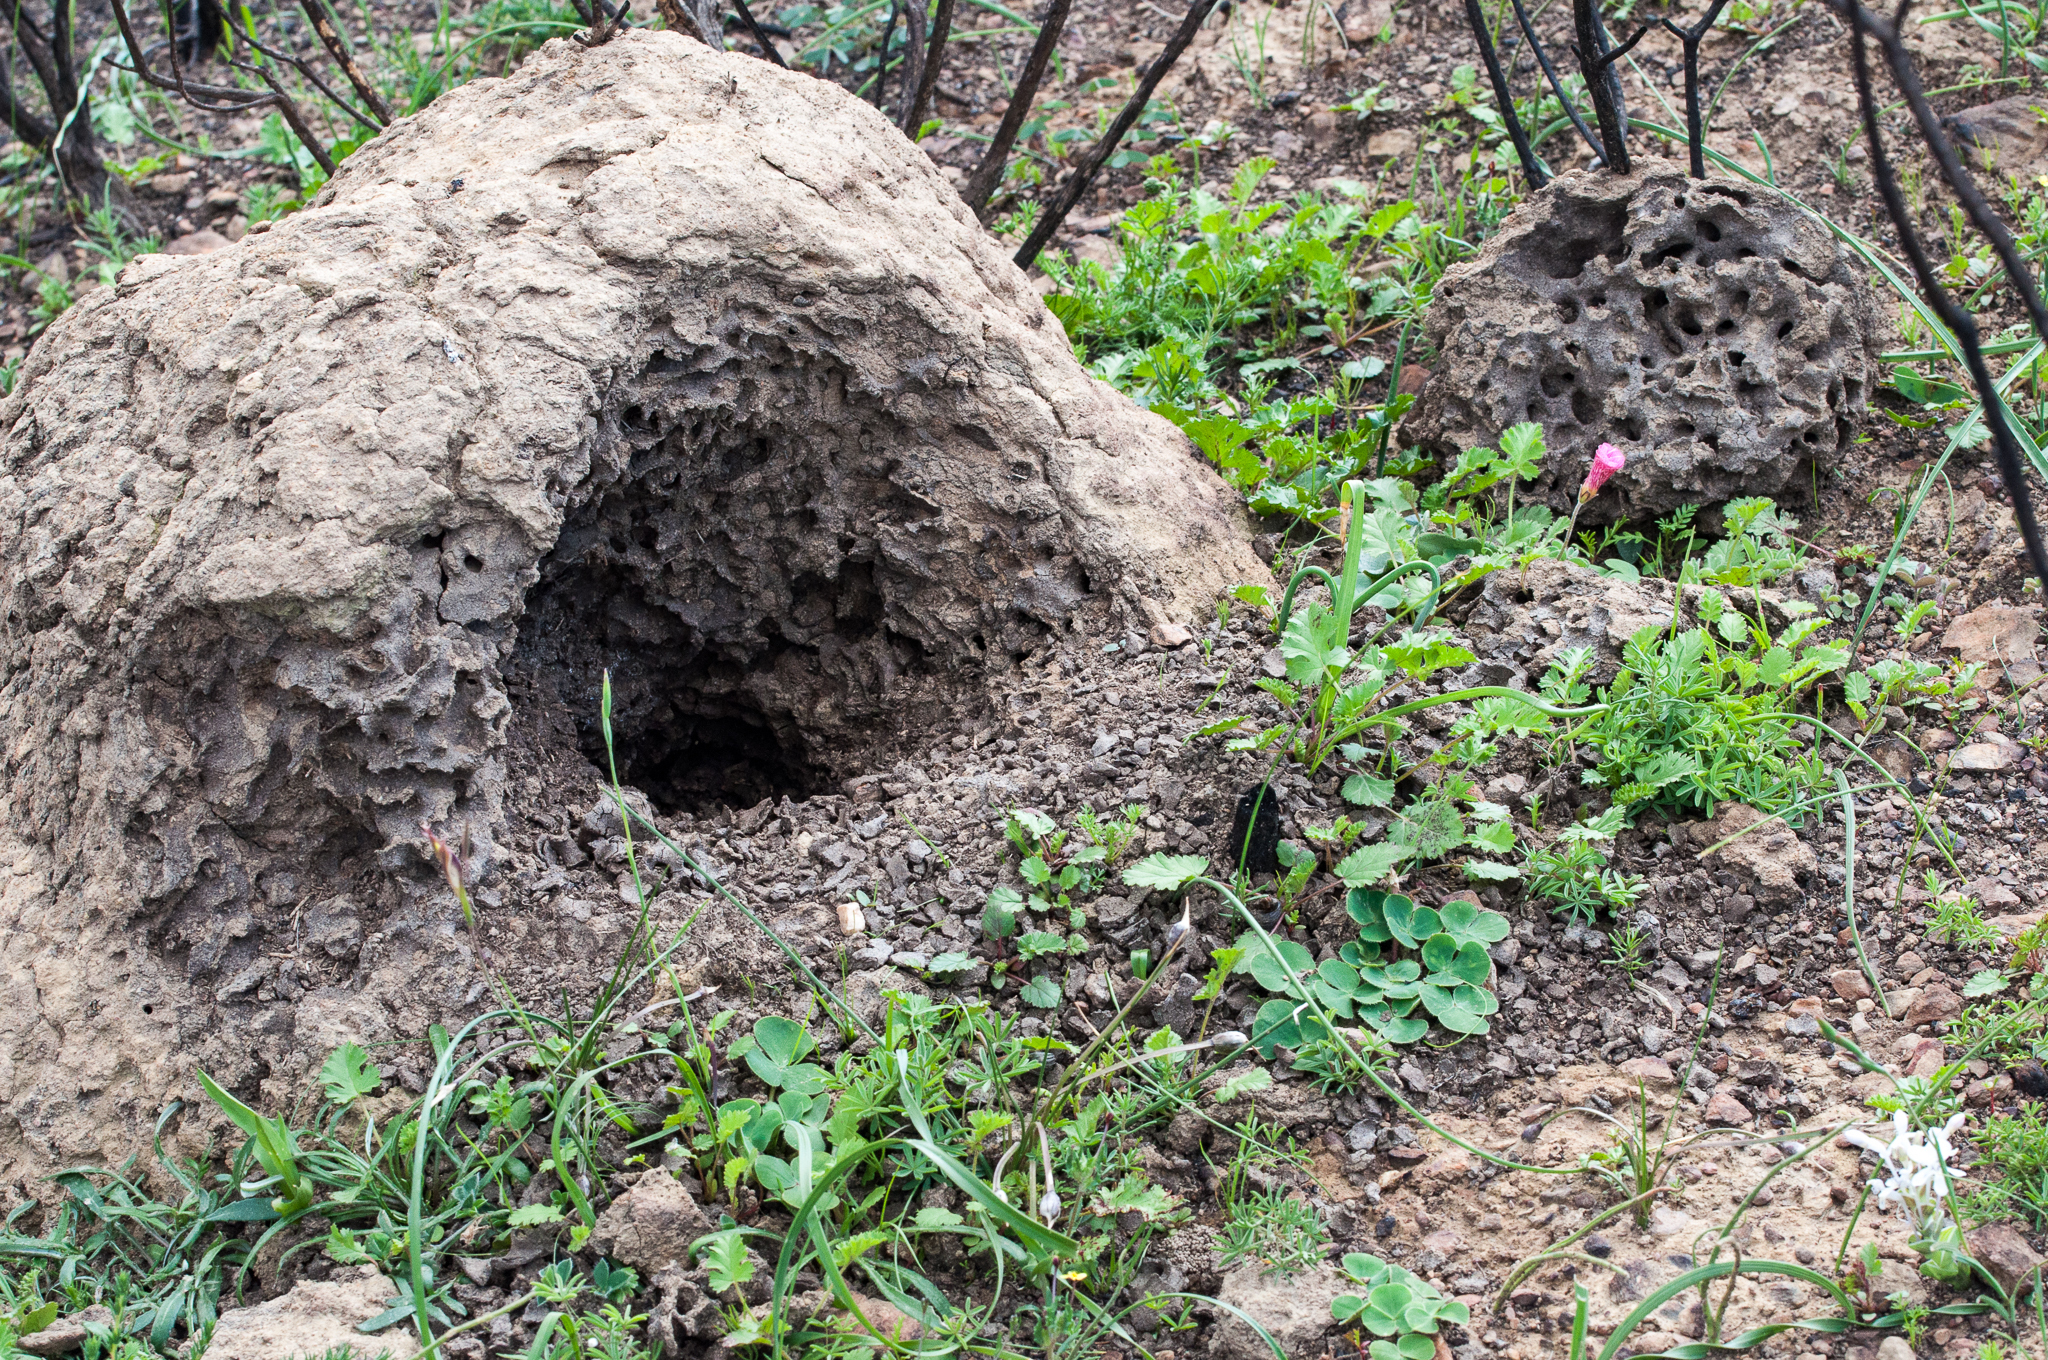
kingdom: Animalia
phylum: Chordata
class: Mammalia
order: Tubulidentata
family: Orycteropodidae
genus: Orycteropus
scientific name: Orycteropus afer
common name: Aardvark
